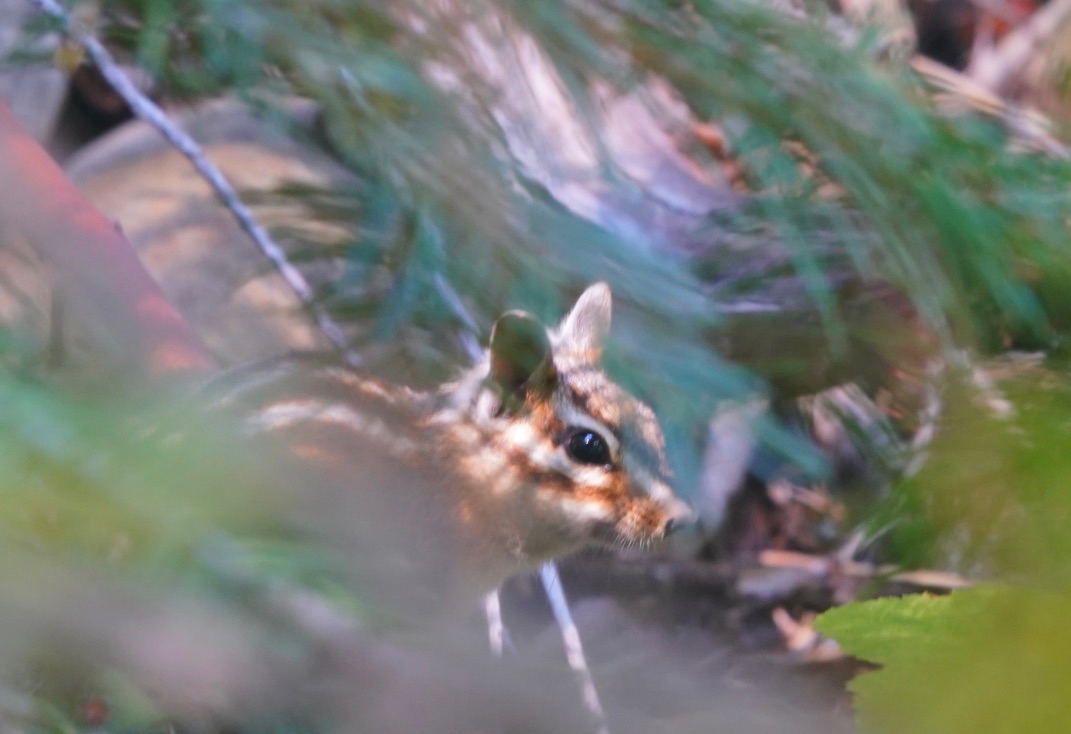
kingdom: Animalia
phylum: Chordata
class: Mammalia
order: Rodentia
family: Sciuridae
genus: Tamias
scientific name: Tamias quadrimaculatus
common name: Long-eared chipmunk
